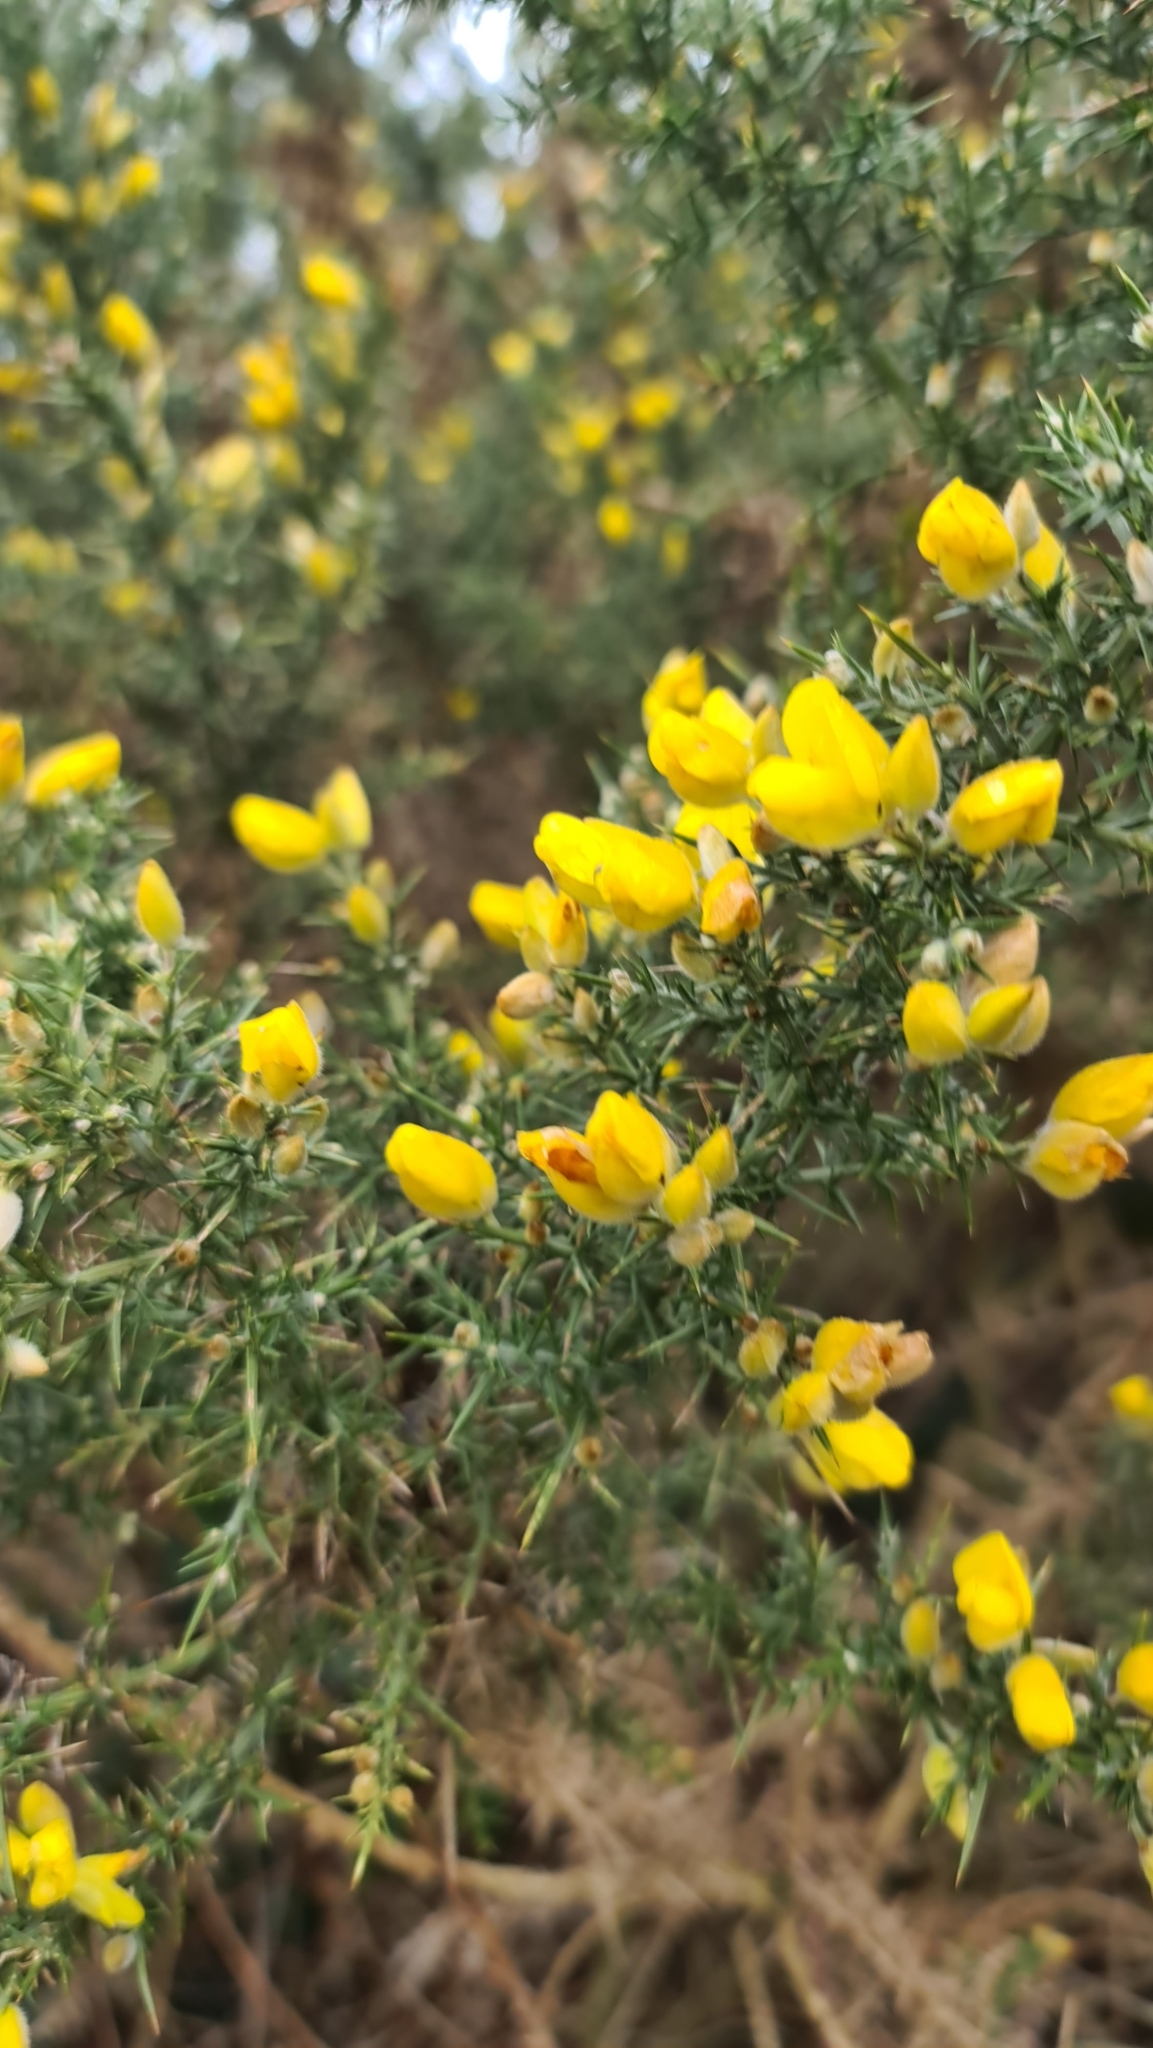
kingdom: Plantae
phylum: Tracheophyta
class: Magnoliopsida
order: Fabales
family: Fabaceae
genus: Ulex
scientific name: Ulex europaeus
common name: Common gorse
